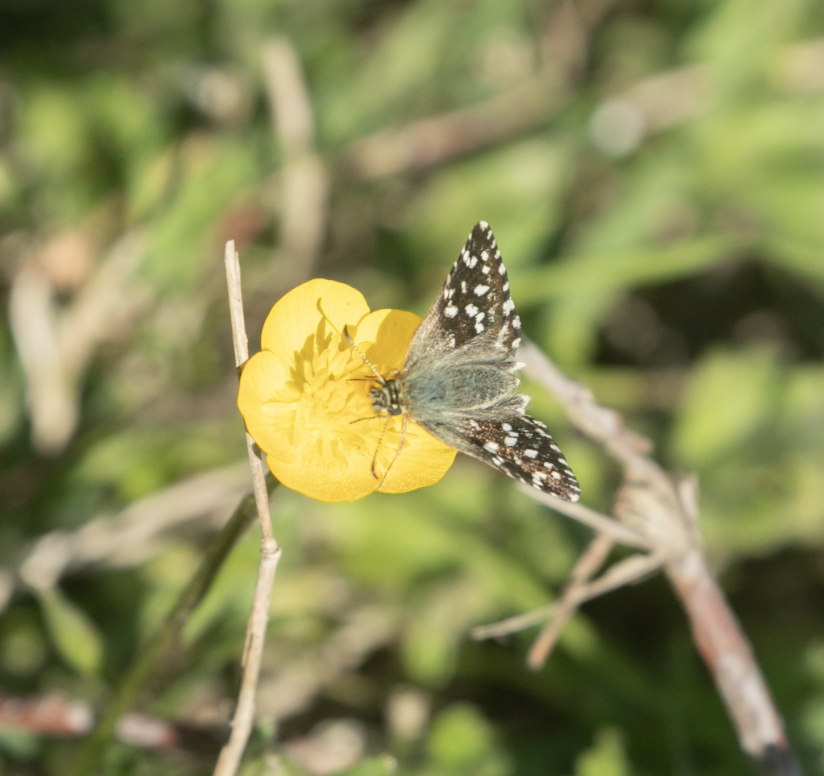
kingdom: Animalia
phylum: Arthropoda
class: Insecta
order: Lepidoptera
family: Hesperiidae
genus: Pyrgus
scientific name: Pyrgus malvoides
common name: Southern grizzled skipper
